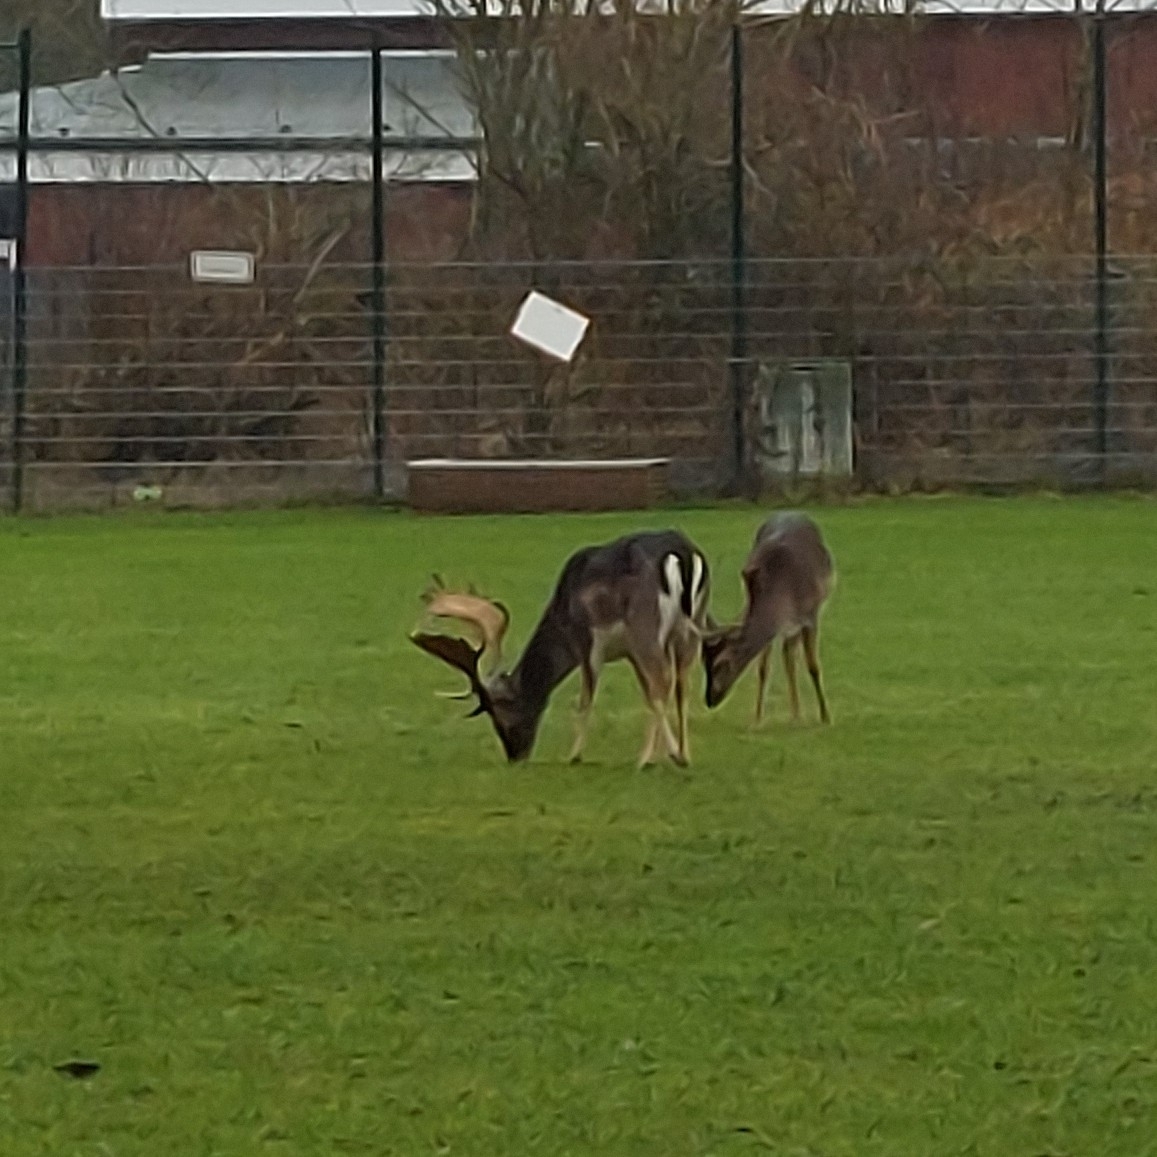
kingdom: Animalia
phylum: Chordata
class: Mammalia
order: Artiodactyla
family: Cervidae
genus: Dama
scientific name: Dama dama
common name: Fallow deer
